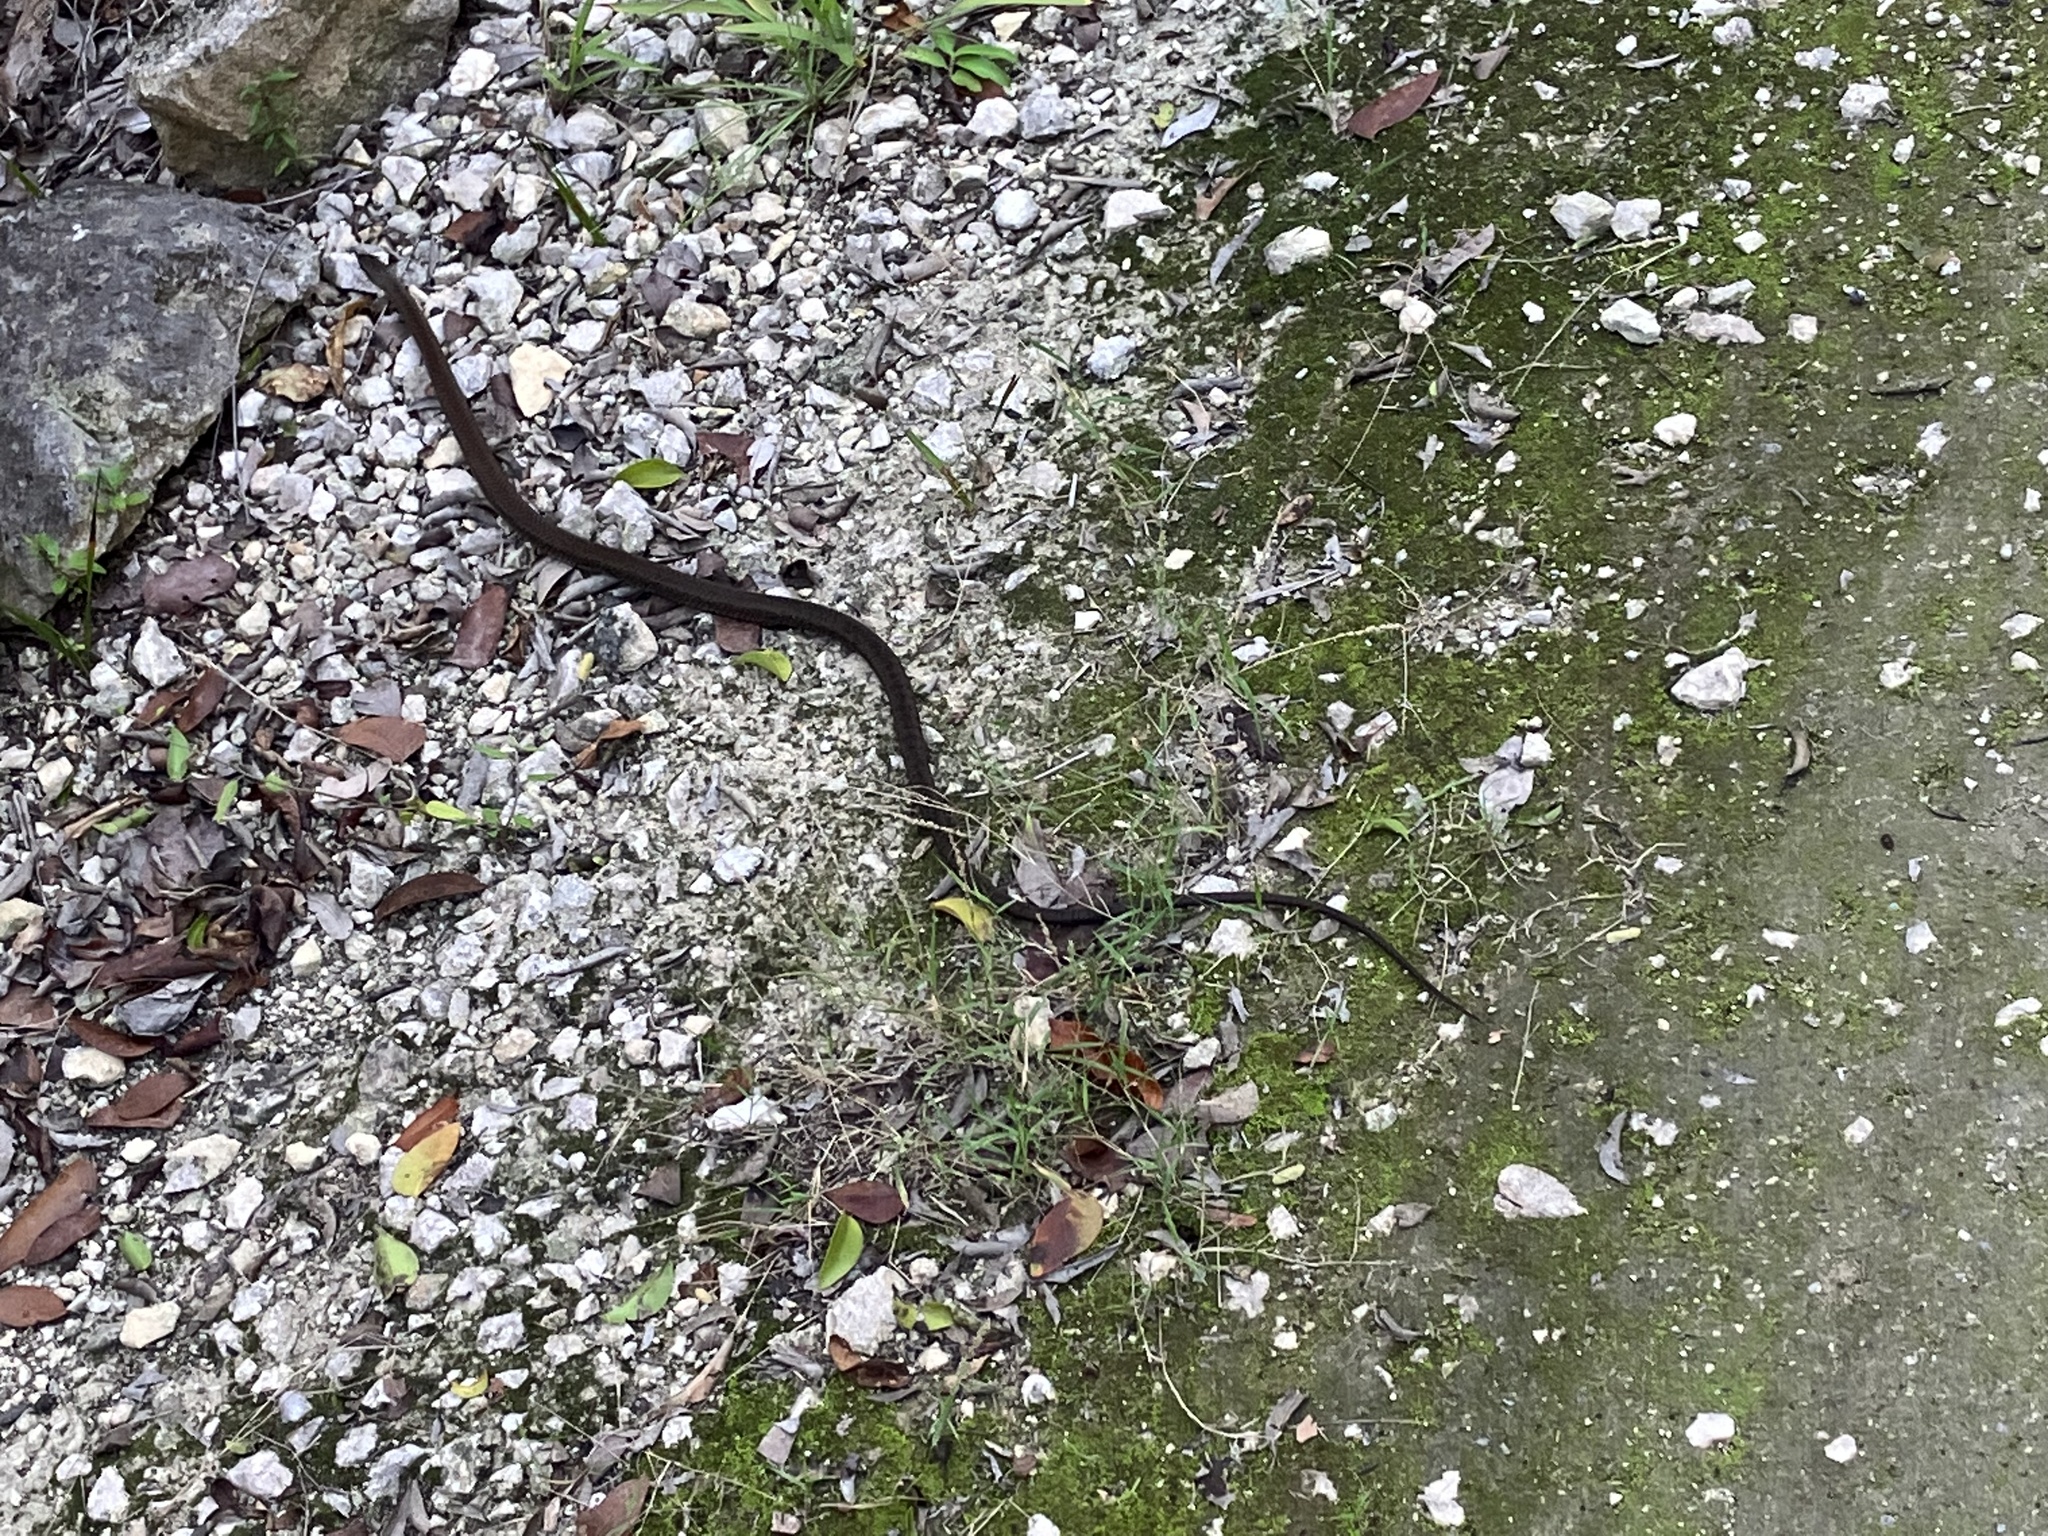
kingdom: Animalia
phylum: Chordata
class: Squamata
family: Colubridae
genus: Cubophis
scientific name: Cubophis caymanus
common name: Black snake
